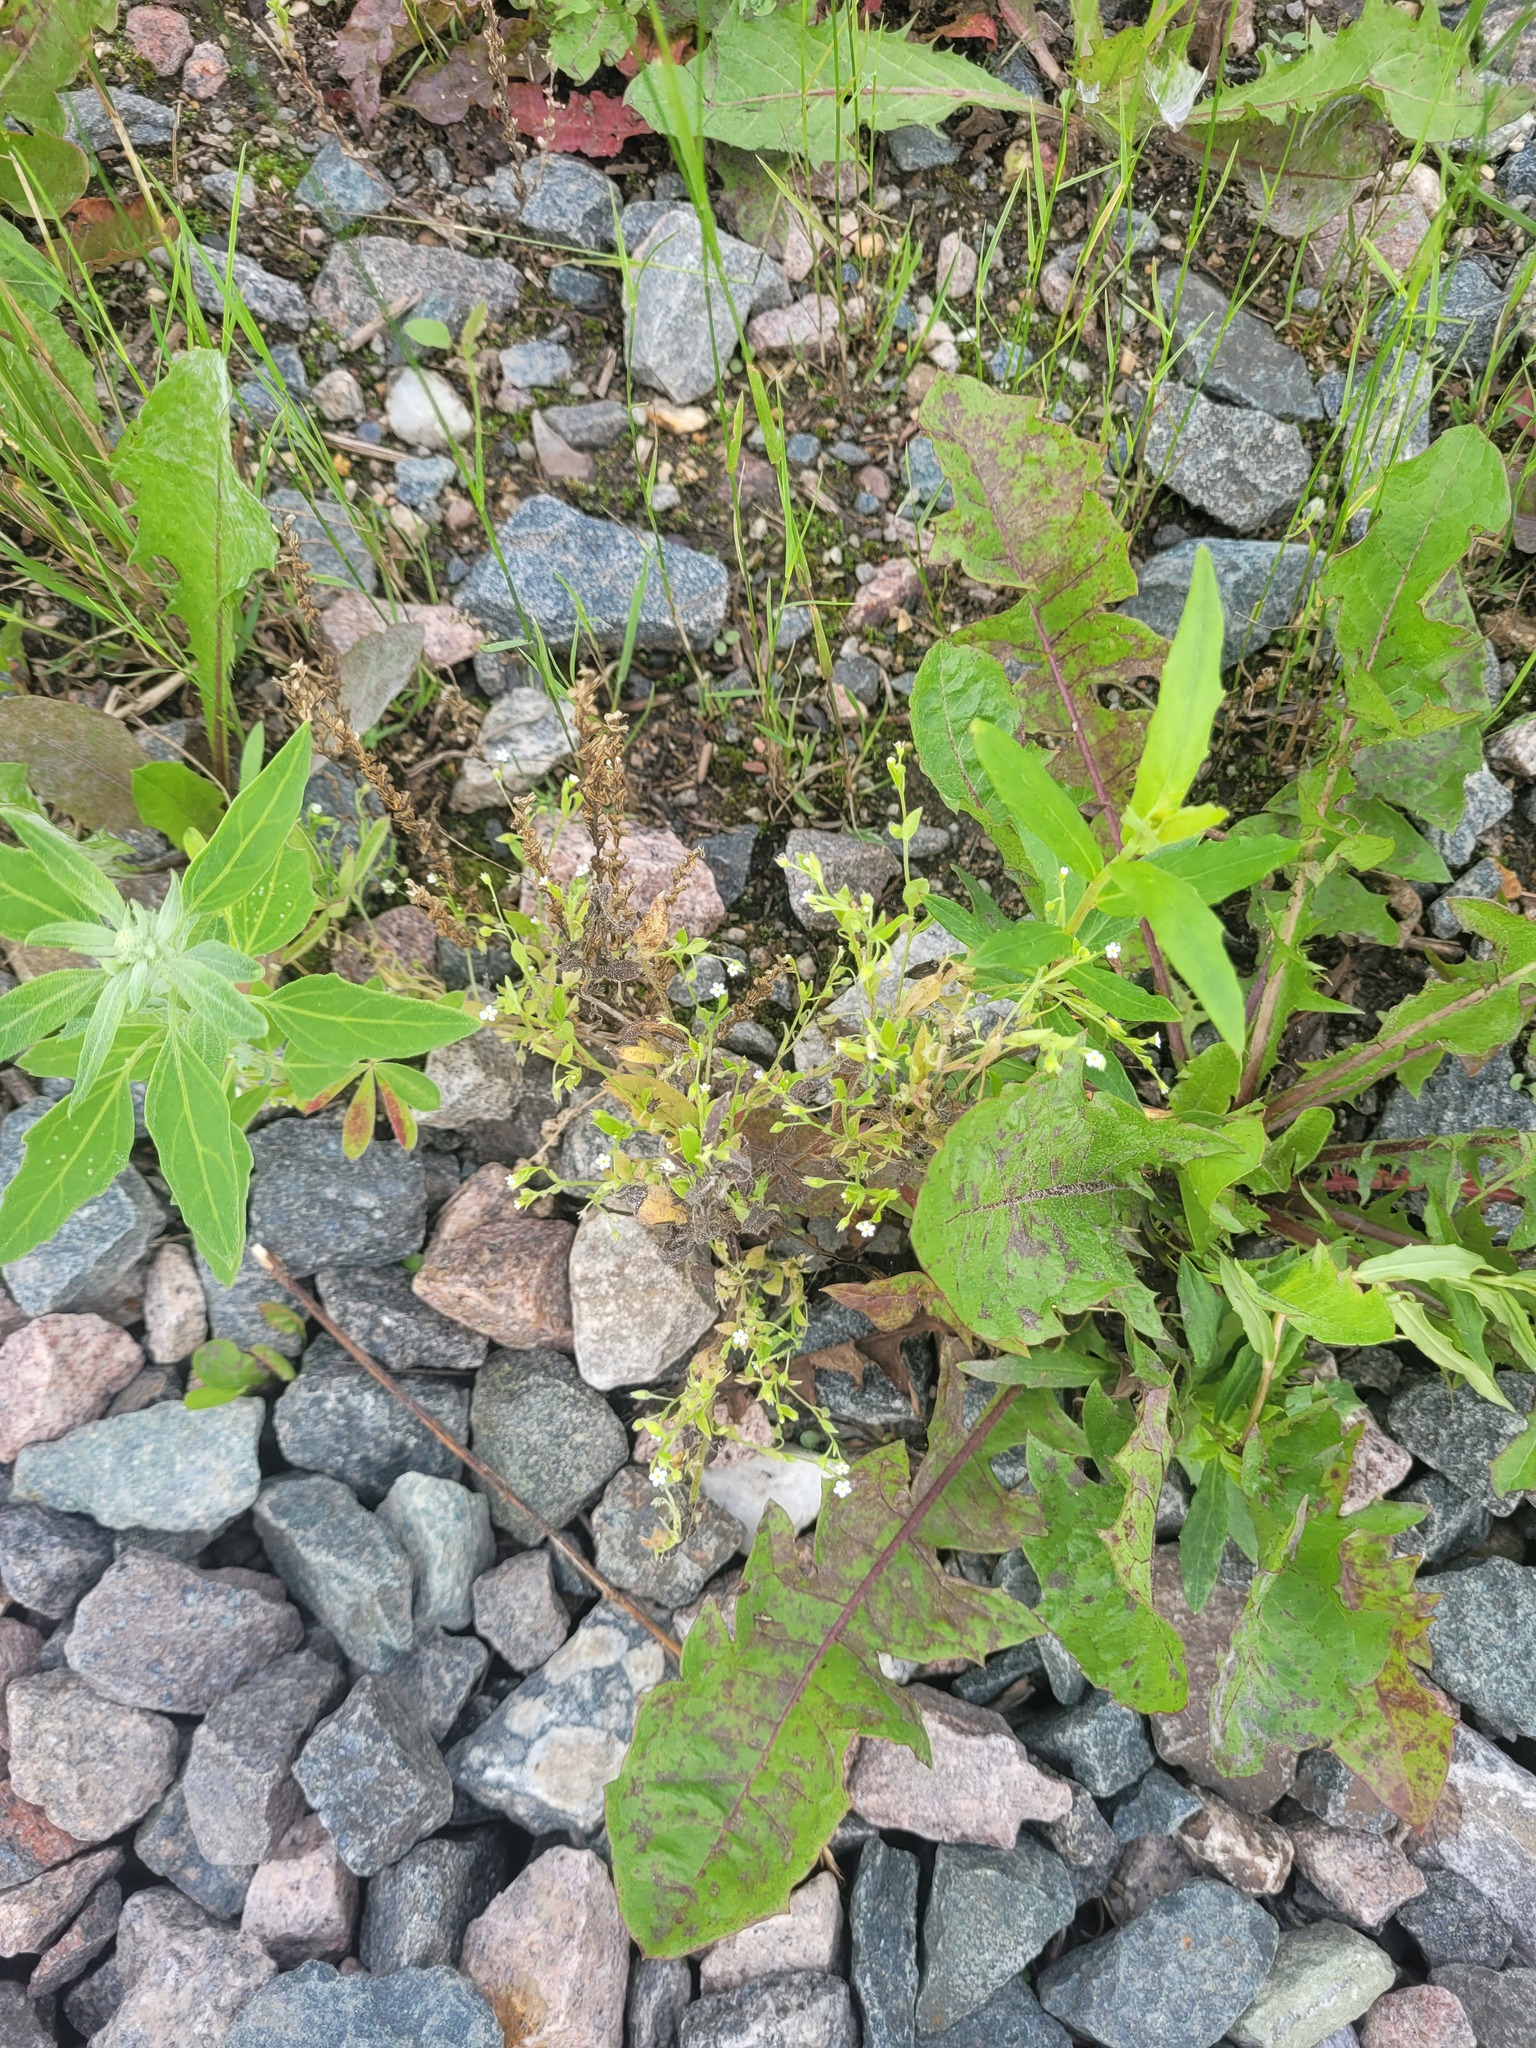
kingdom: Plantae
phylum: Tracheophyta
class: Magnoliopsida
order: Boraginales
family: Boraginaceae
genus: Myosotis
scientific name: Myosotis sparsiflora
